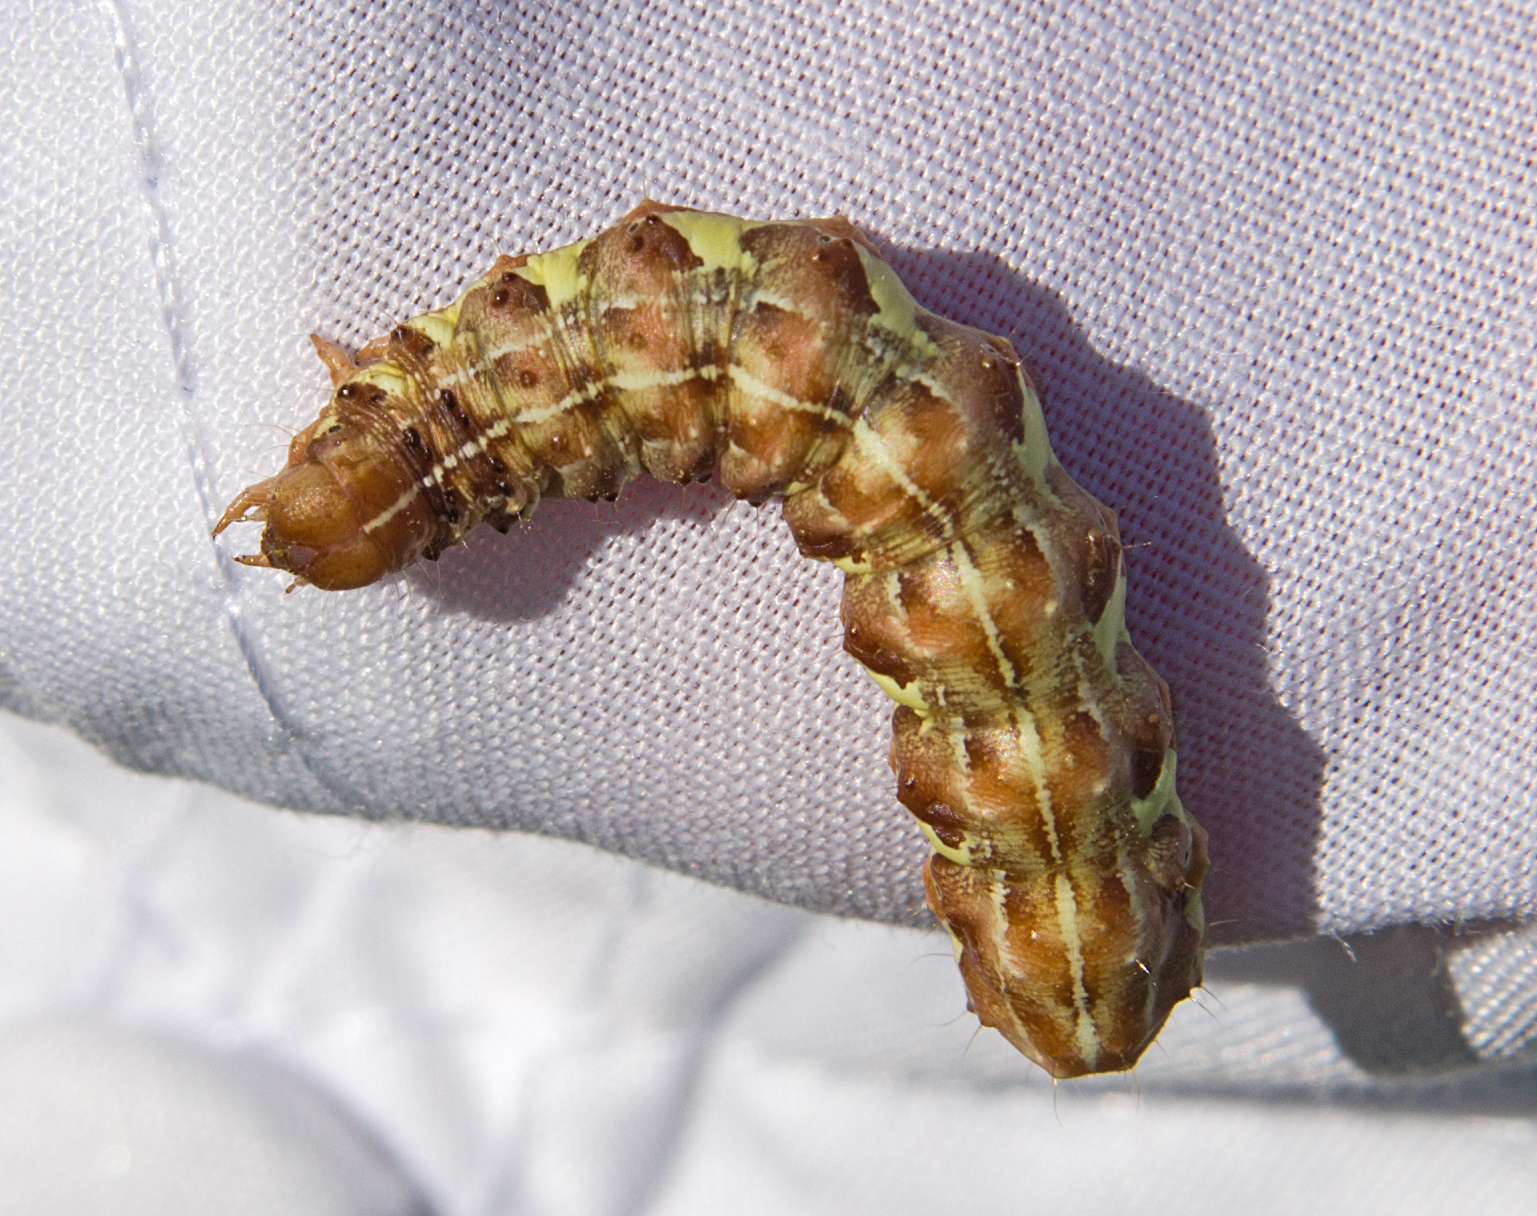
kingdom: Animalia
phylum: Arthropoda
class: Insecta
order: Lepidoptera
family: Noctuidae
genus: Dryobota
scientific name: Dryobota labecula
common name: Oak rustic
